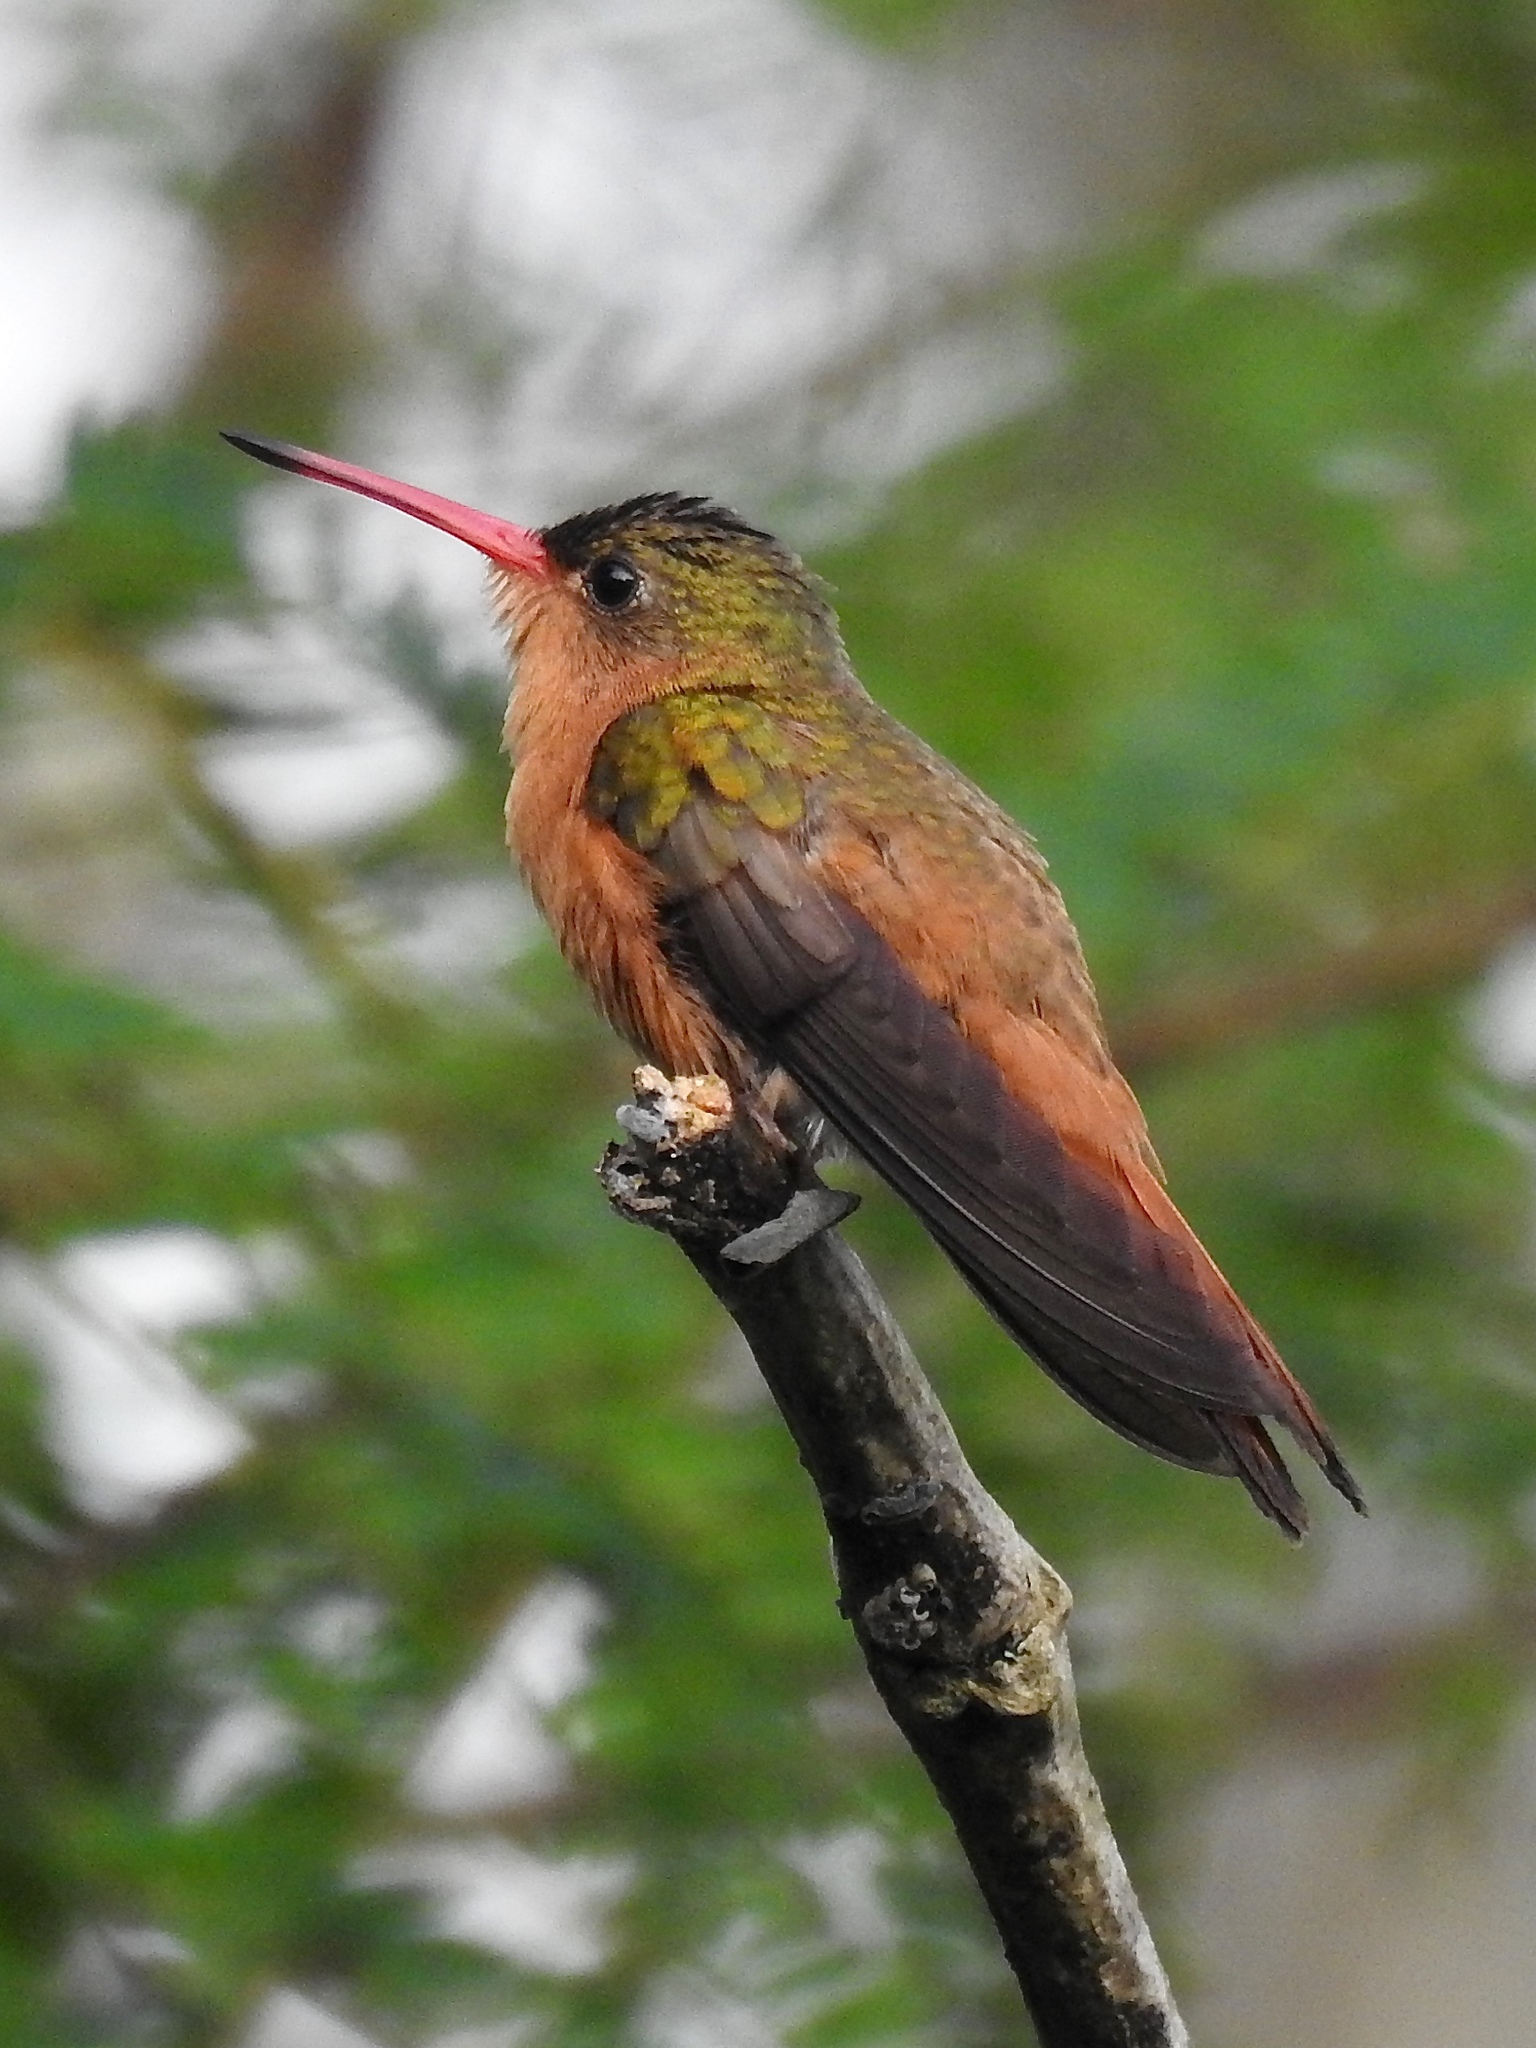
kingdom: Animalia
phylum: Chordata
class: Aves
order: Apodiformes
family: Trochilidae
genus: Amazilia
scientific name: Amazilia rutila
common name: Cinnamon hummingbird
